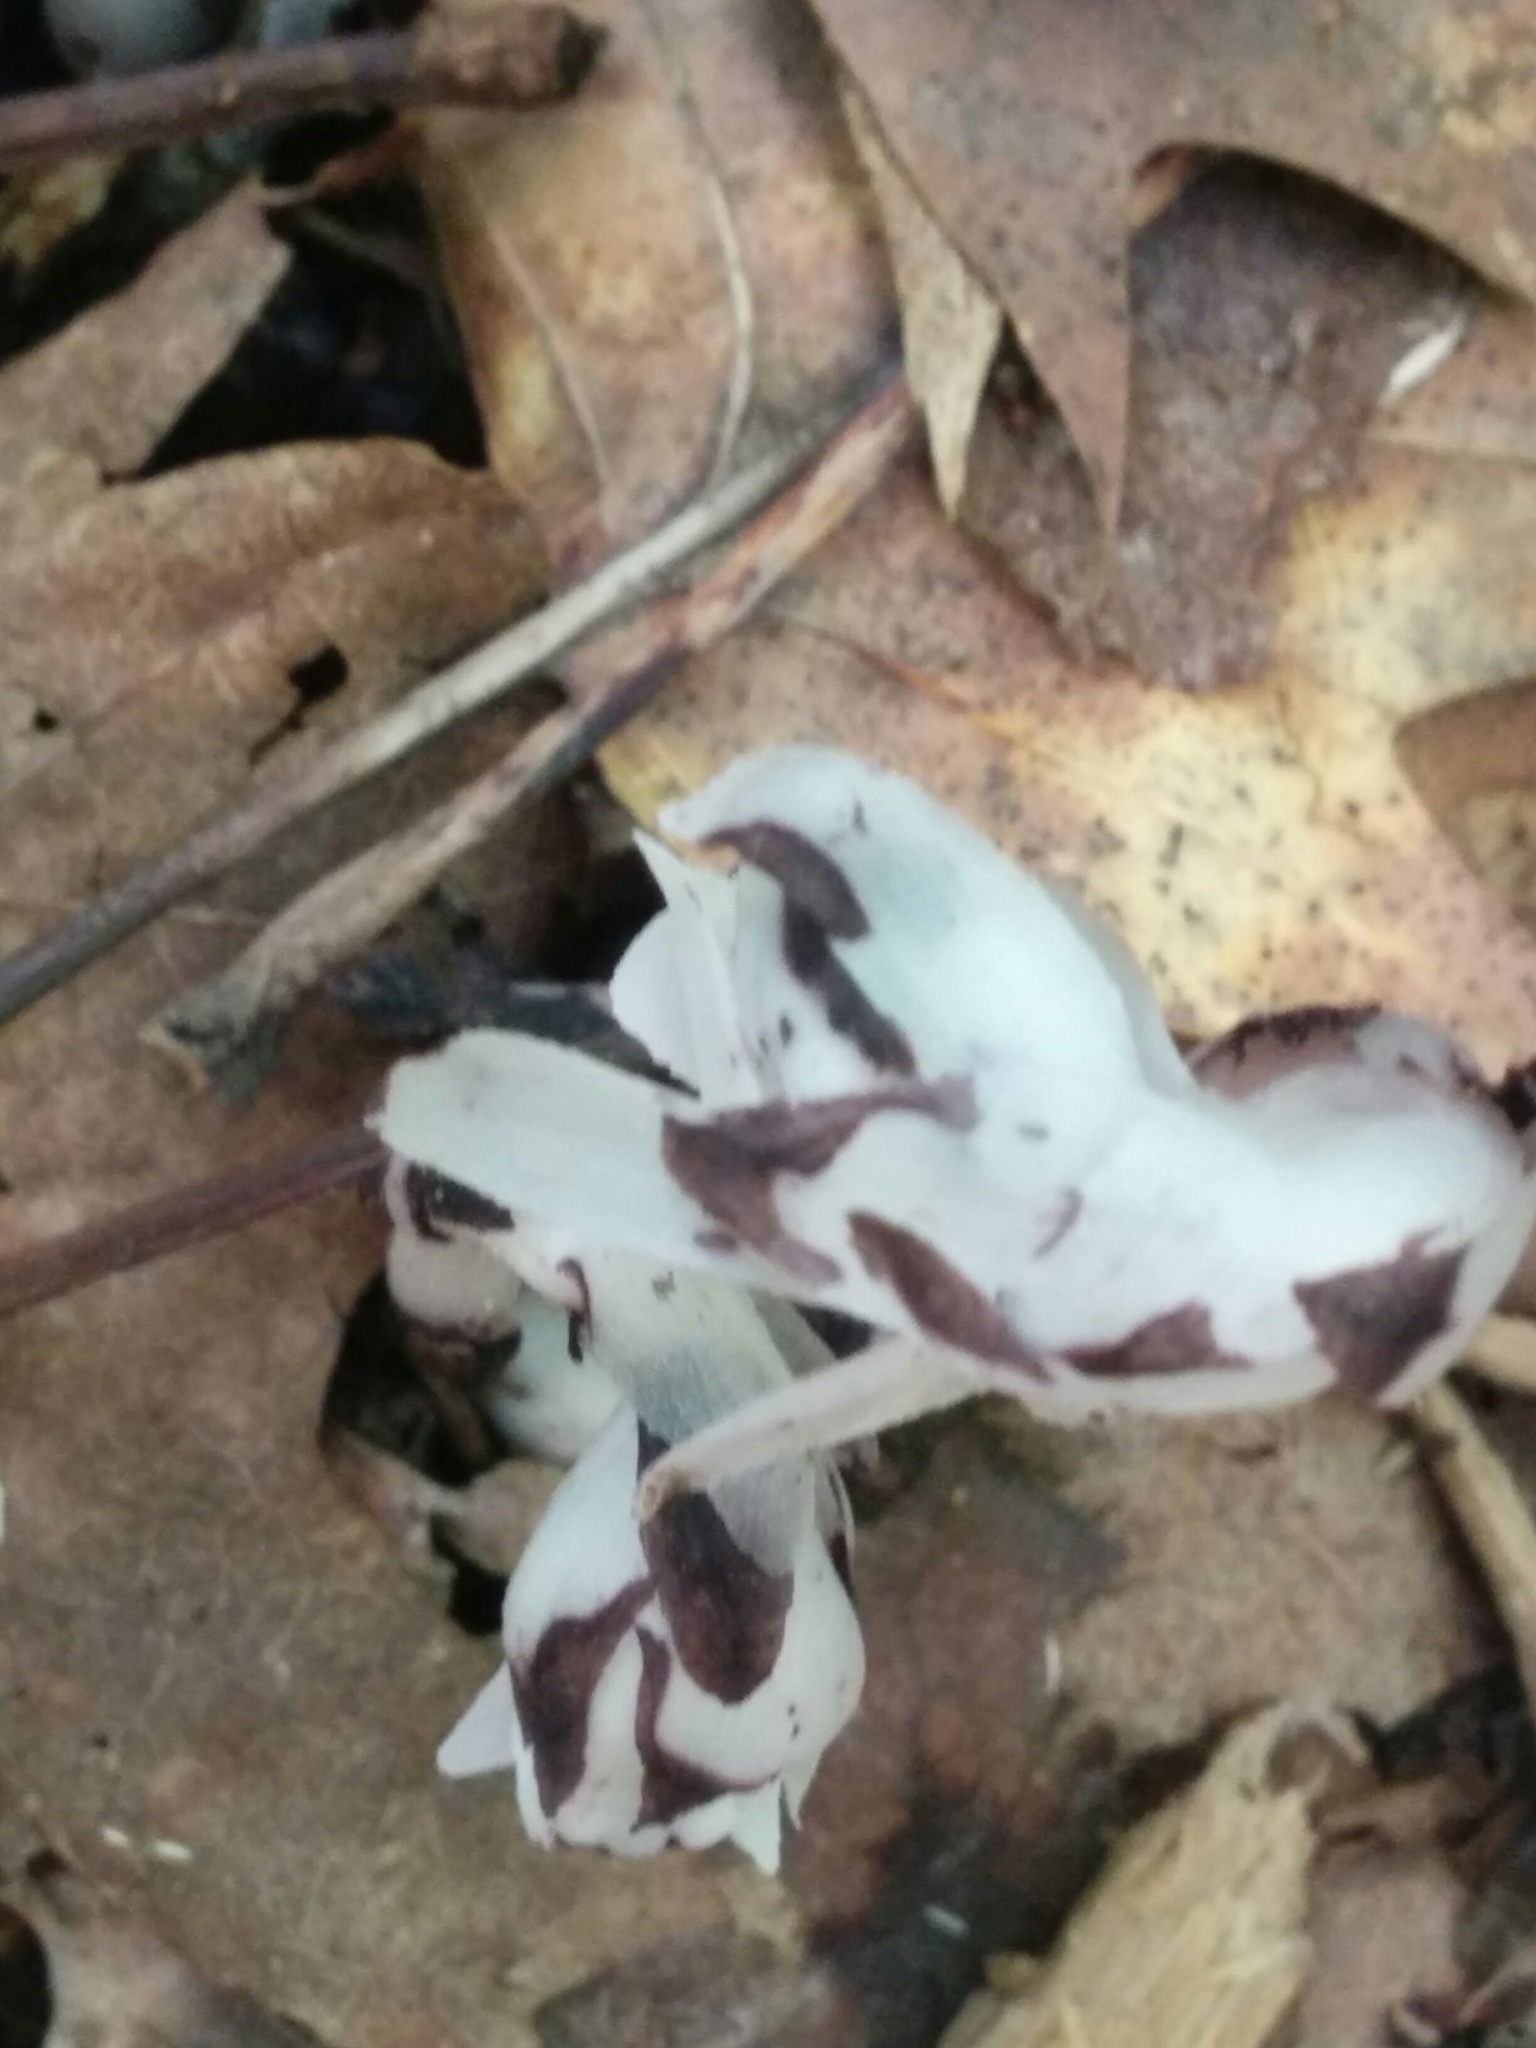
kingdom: Plantae
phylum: Tracheophyta
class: Magnoliopsida
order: Ericales
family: Ericaceae
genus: Monotropa
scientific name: Monotropa uniflora
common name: Convulsion root
